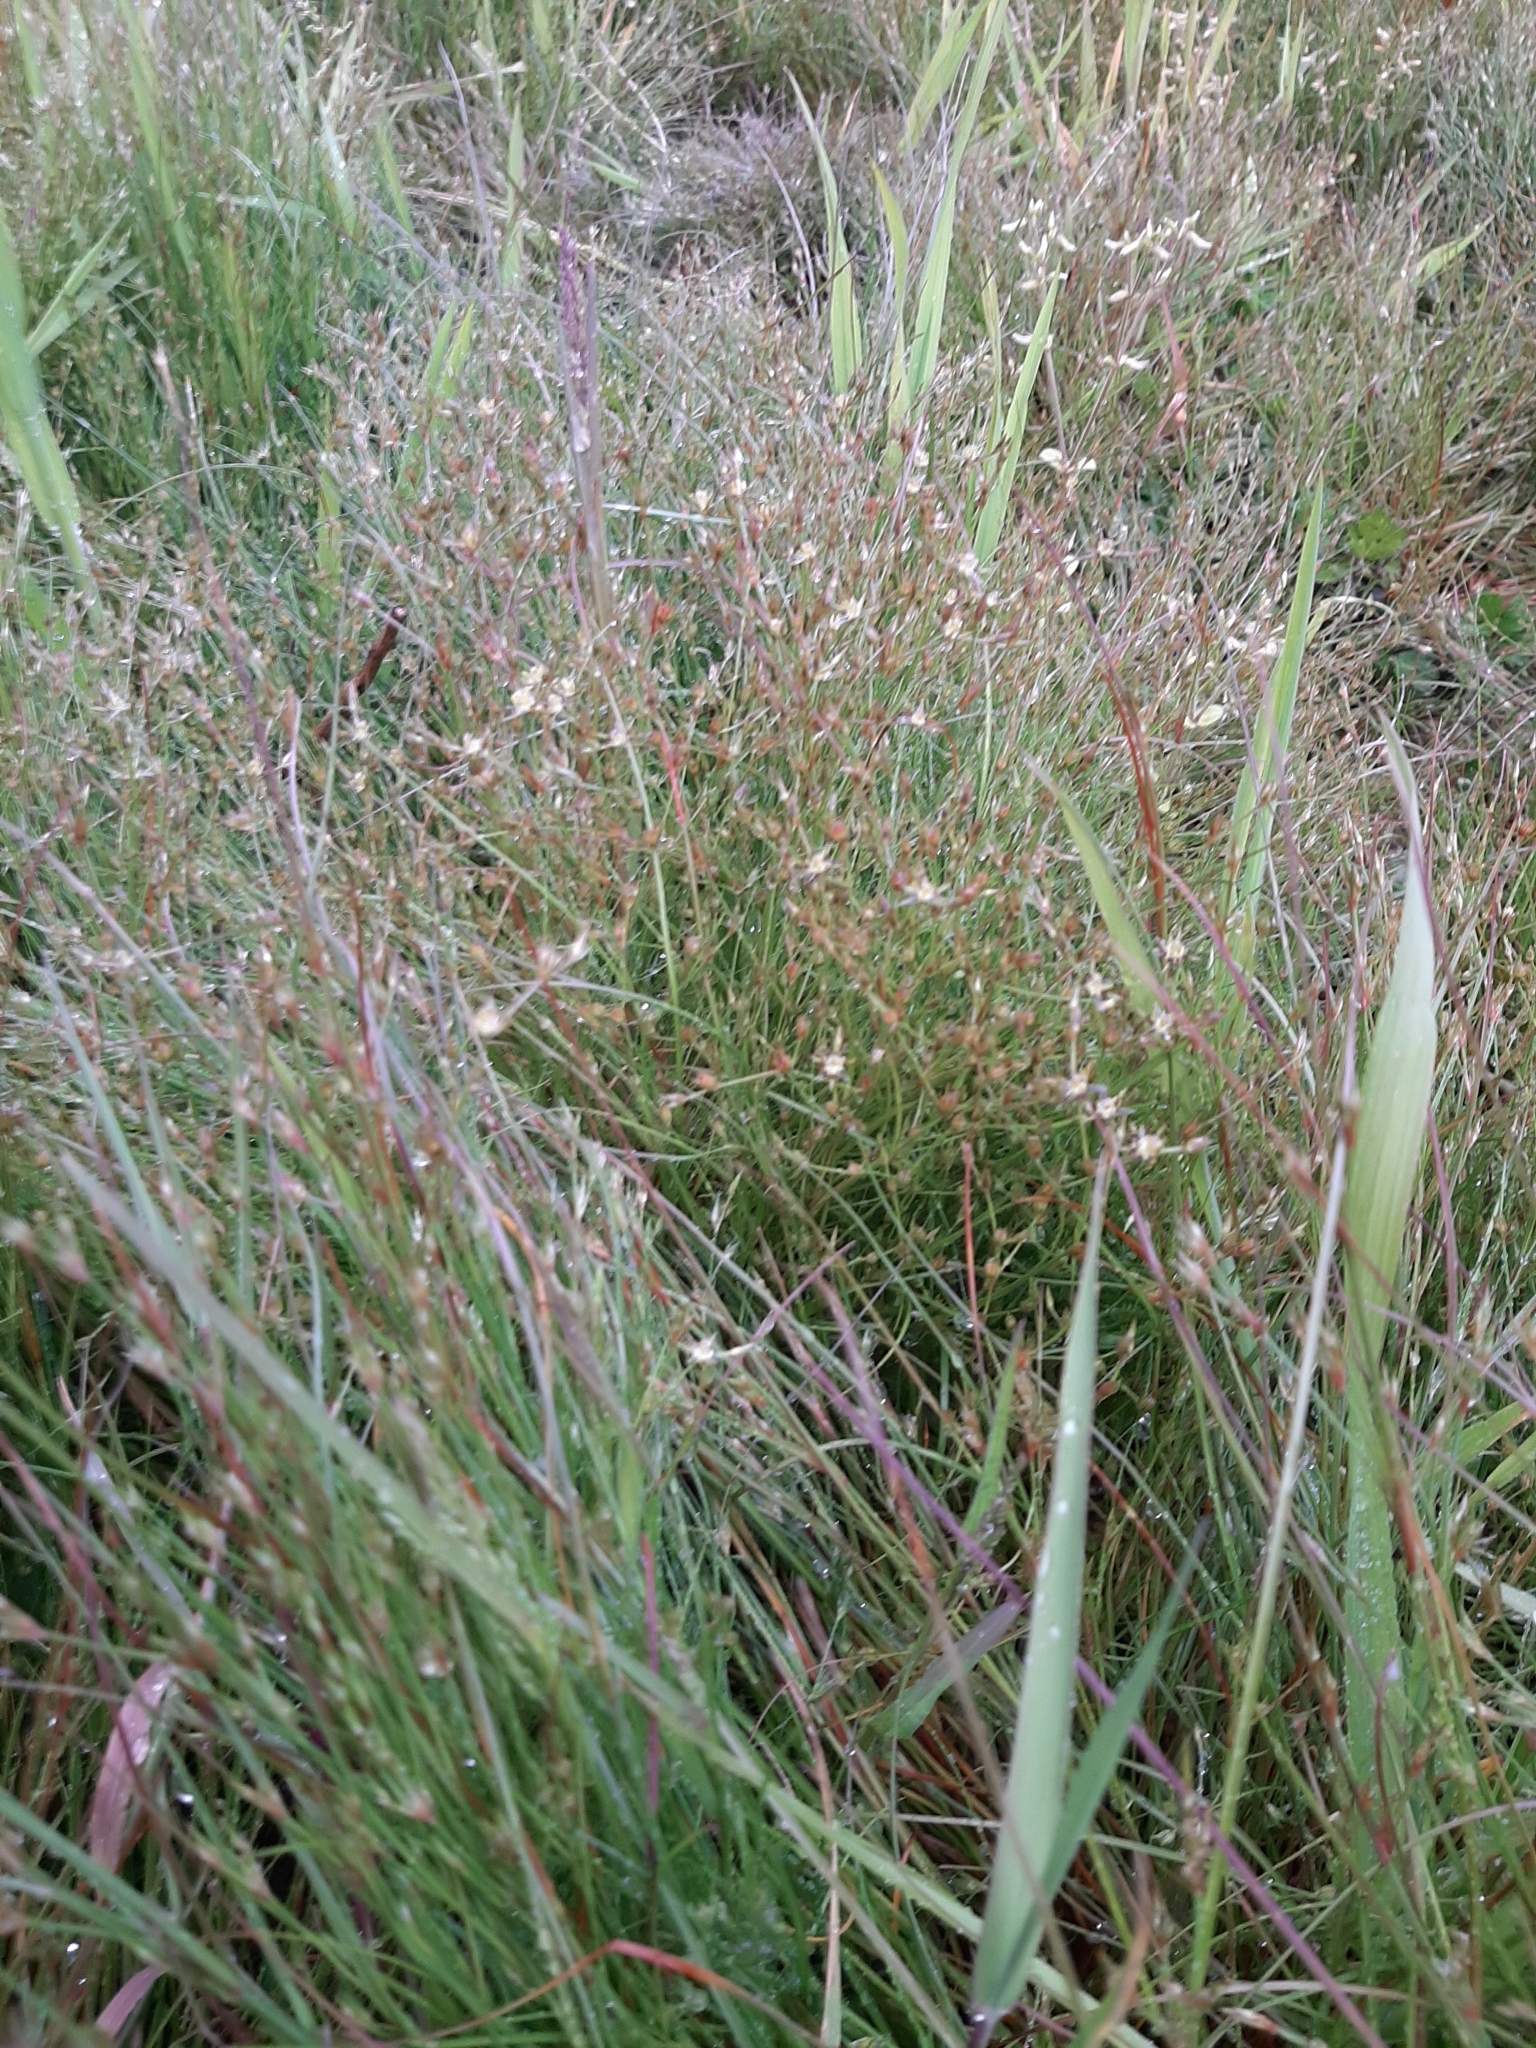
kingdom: Plantae
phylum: Tracheophyta
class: Liliopsida
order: Poales
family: Juncaceae
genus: Juncus
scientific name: Juncus bufonius
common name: Toad rush
